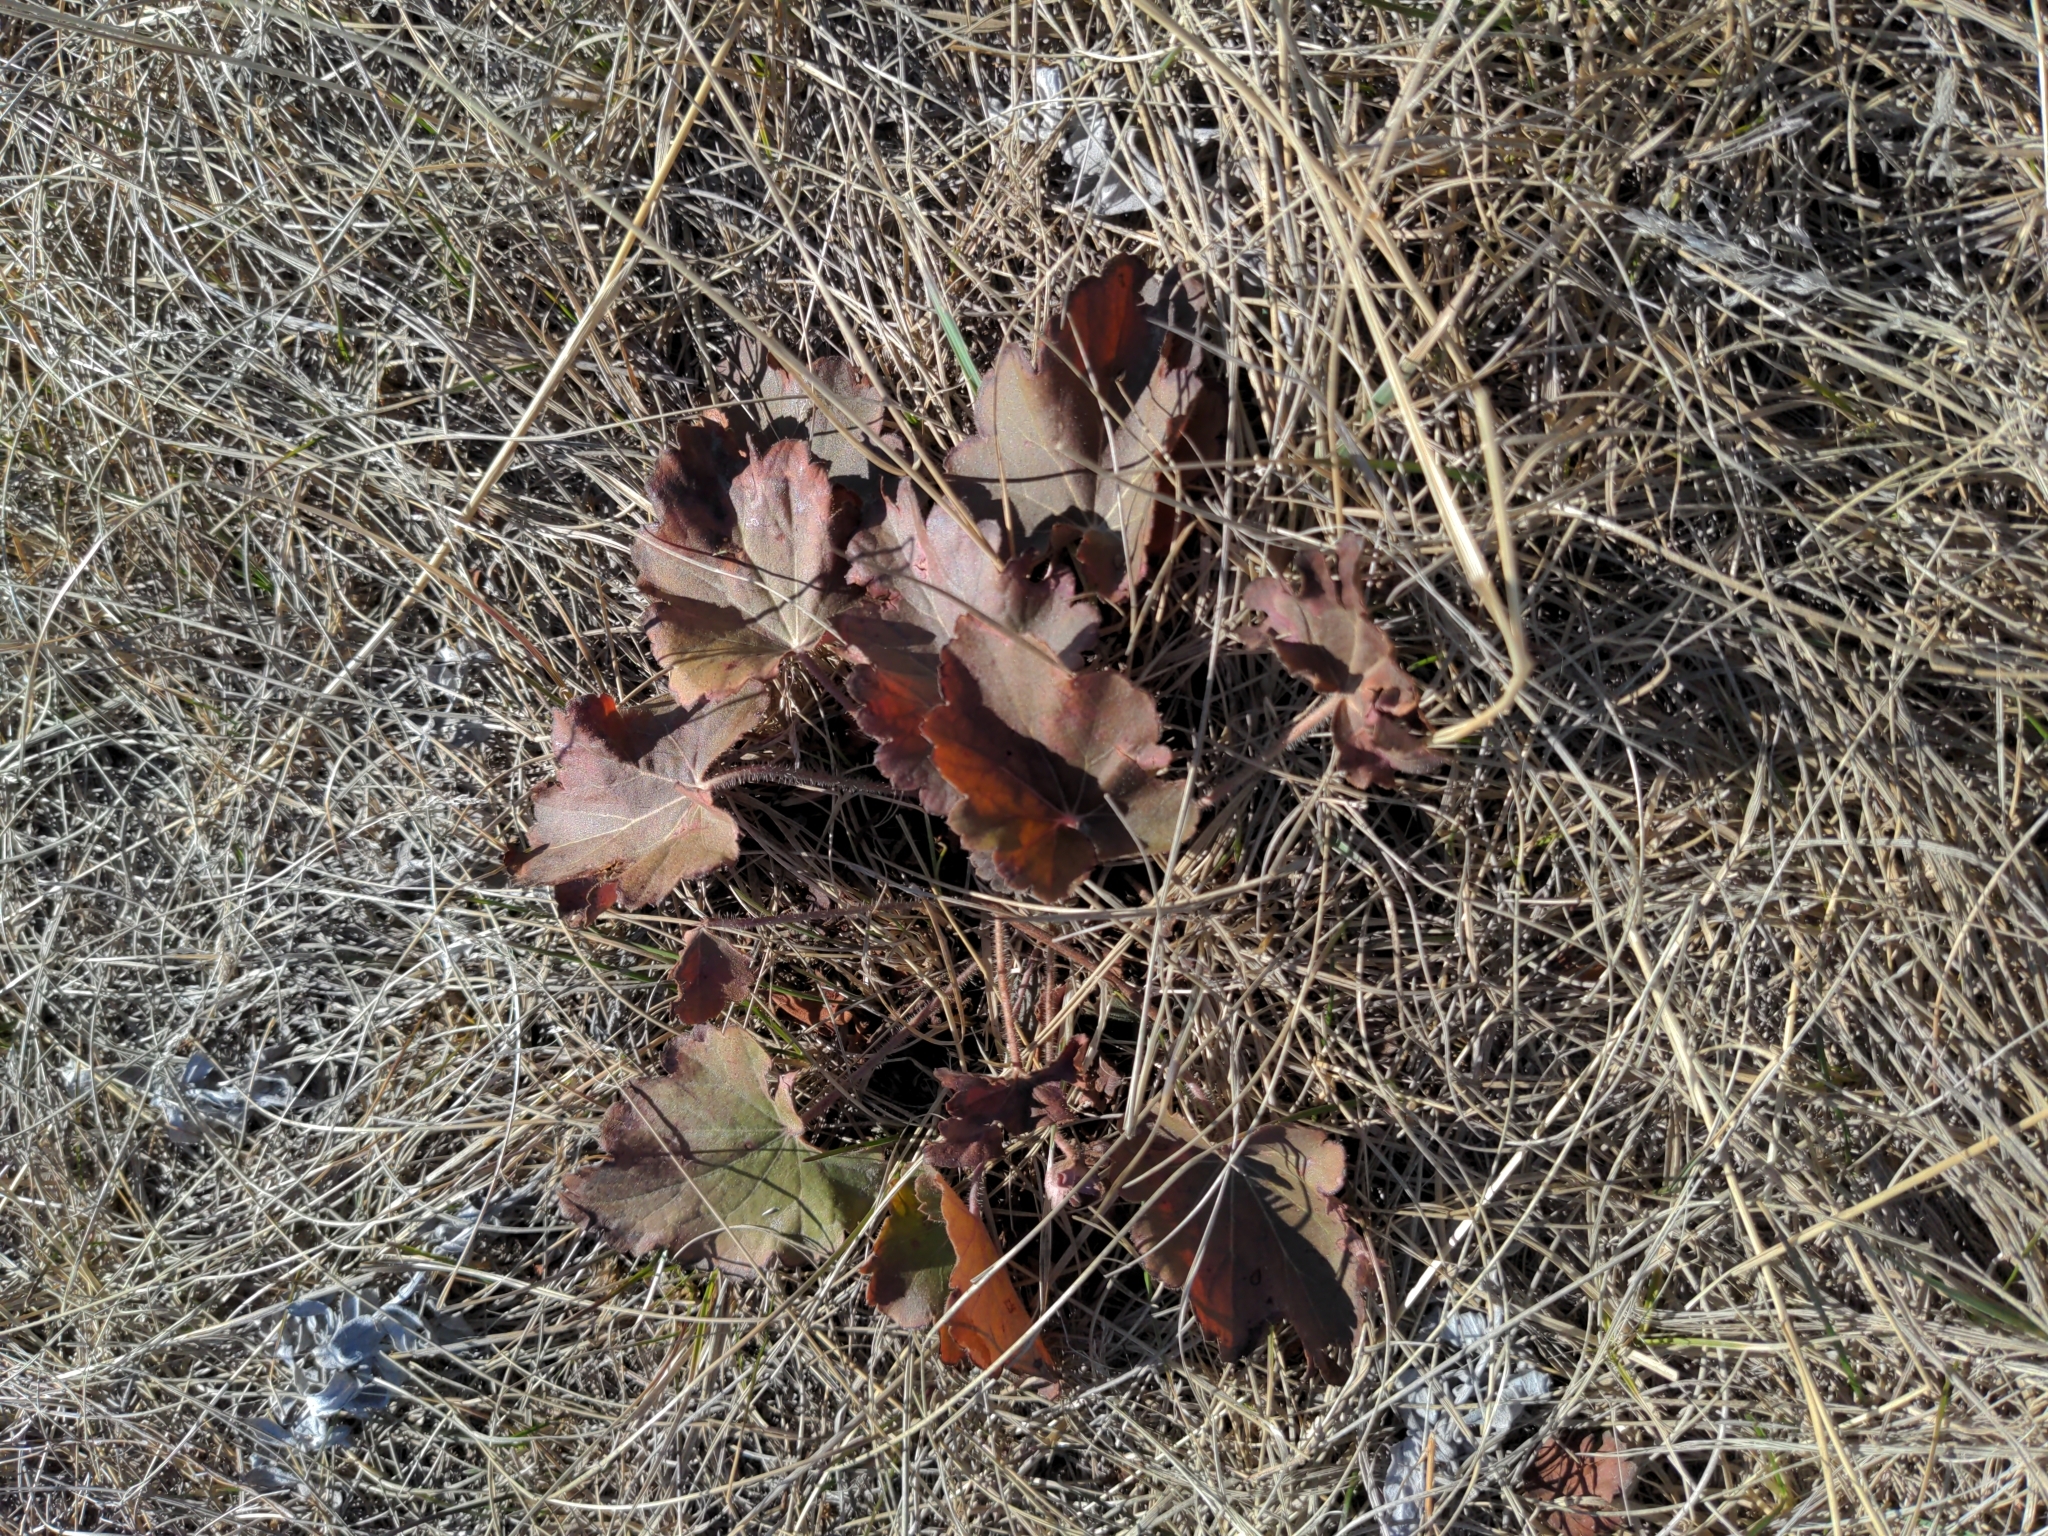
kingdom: Plantae
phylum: Tracheophyta
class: Magnoliopsida
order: Saxifragales
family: Saxifragaceae
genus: Heuchera
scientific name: Heuchera richardsonii
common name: Richardson's alumroot
